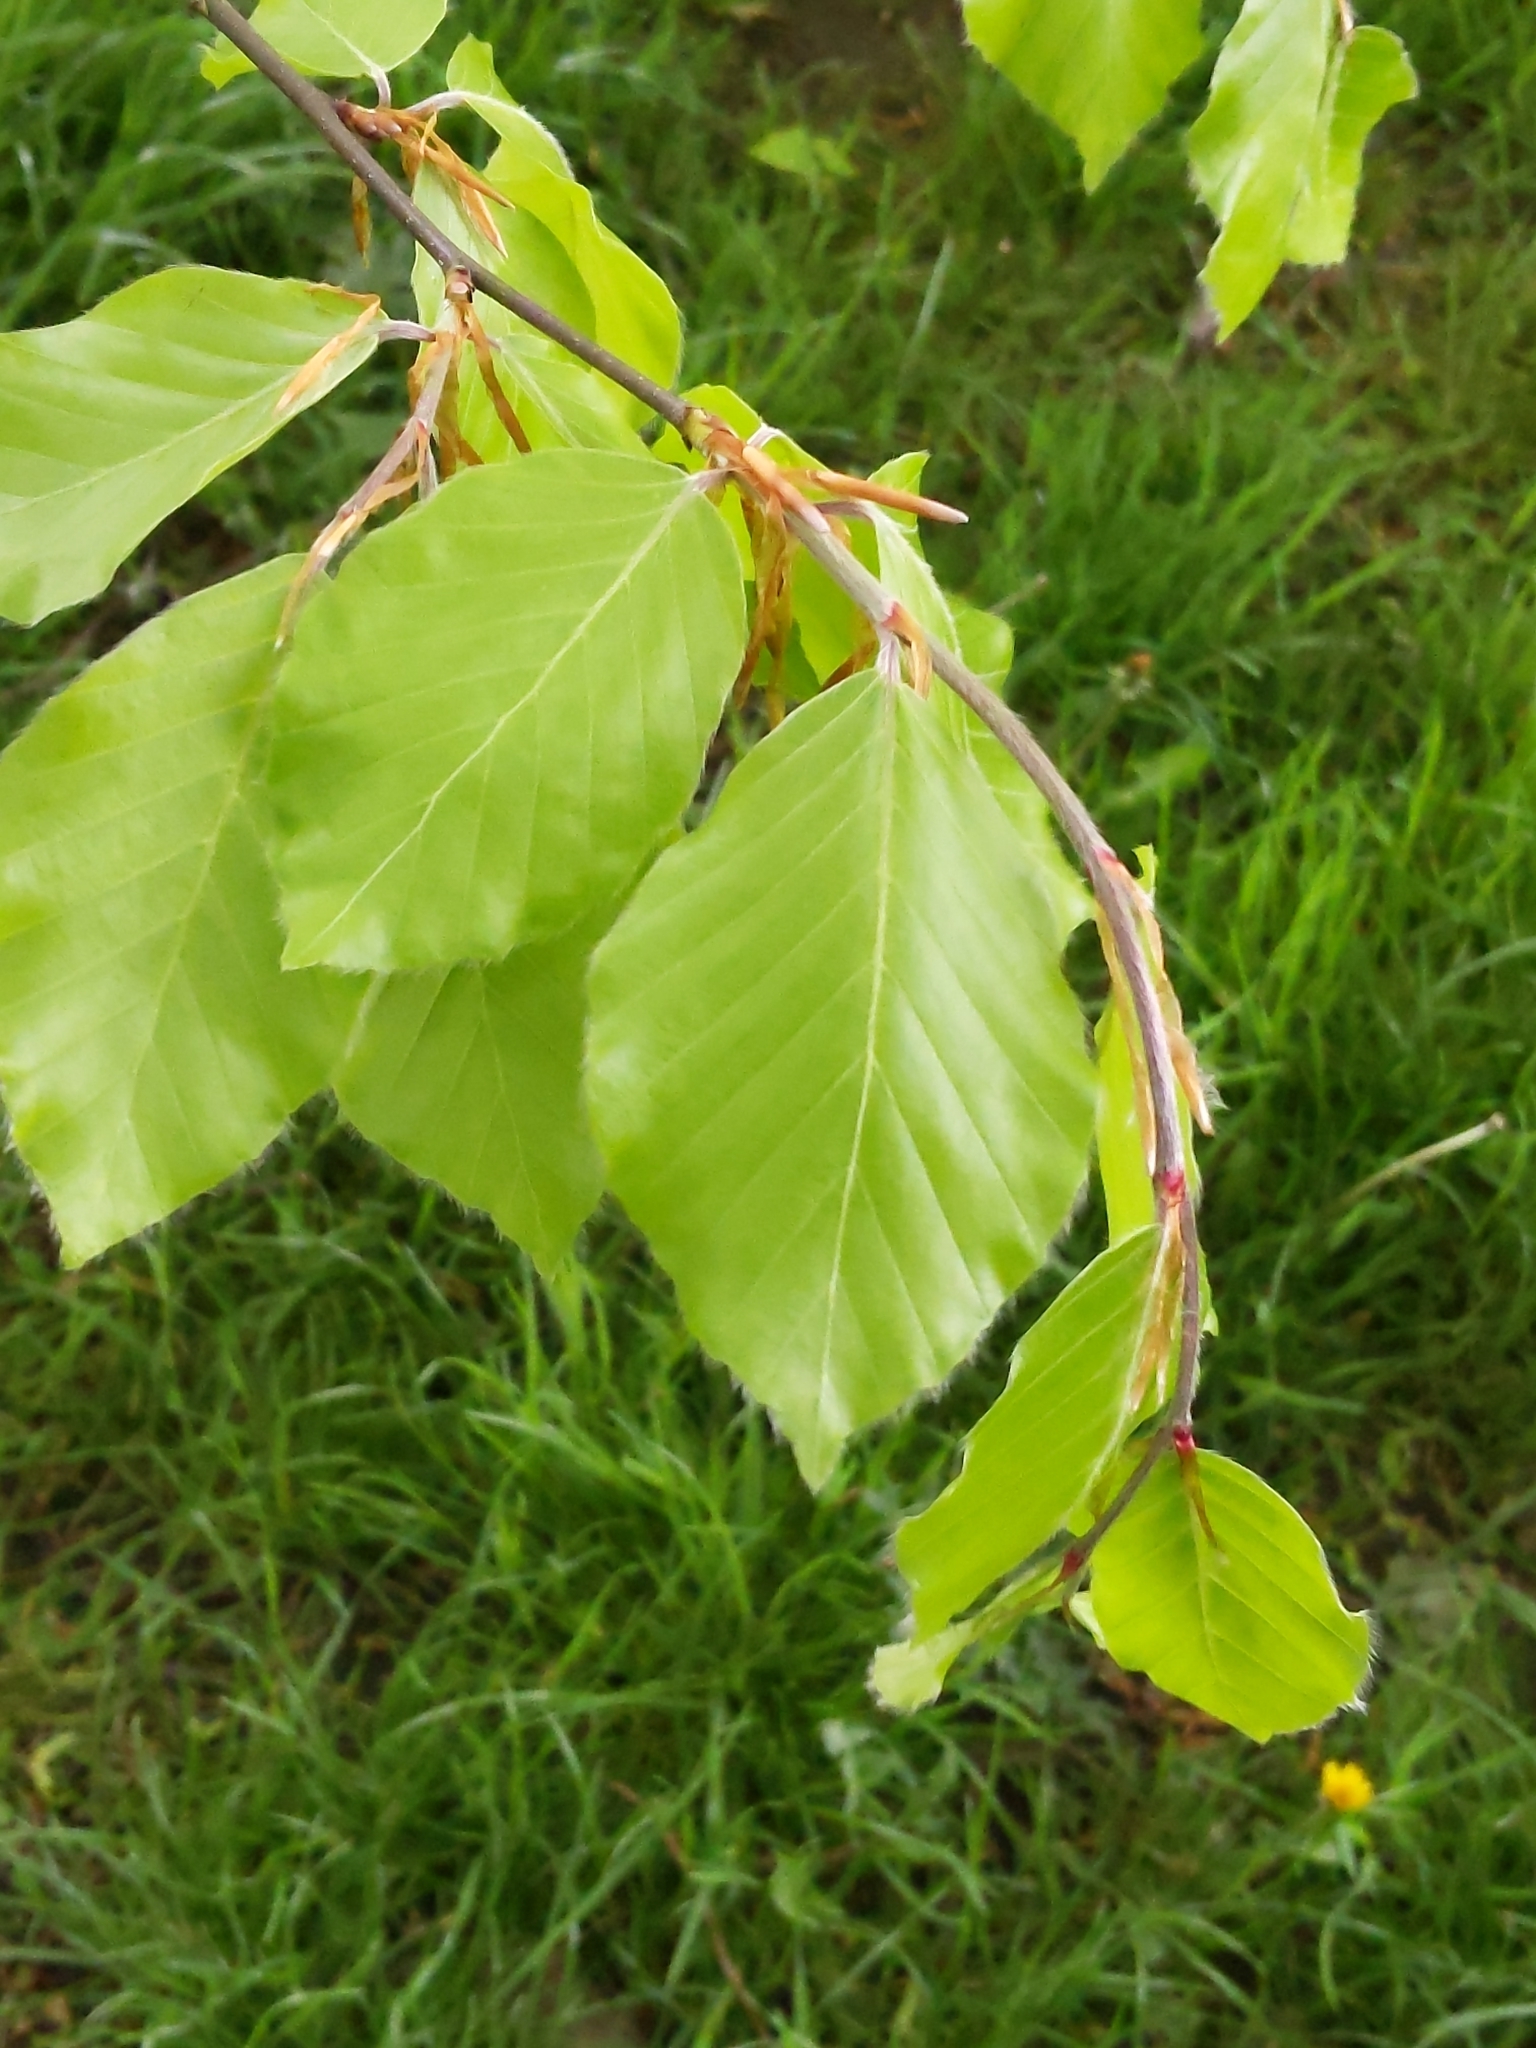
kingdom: Plantae
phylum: Tracheophyta
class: Magnoliopsida
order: Fagales
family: Fagaceae
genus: Fagus
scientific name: Fagus sylvatica
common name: Beech
